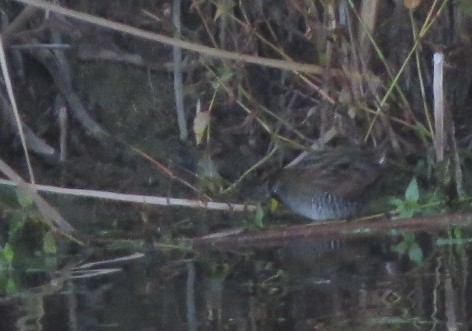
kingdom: Animalia
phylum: Chordata
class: Aves
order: Gruiformes
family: Rallidae
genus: Porzana
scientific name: Porzana carolina
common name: Sora
